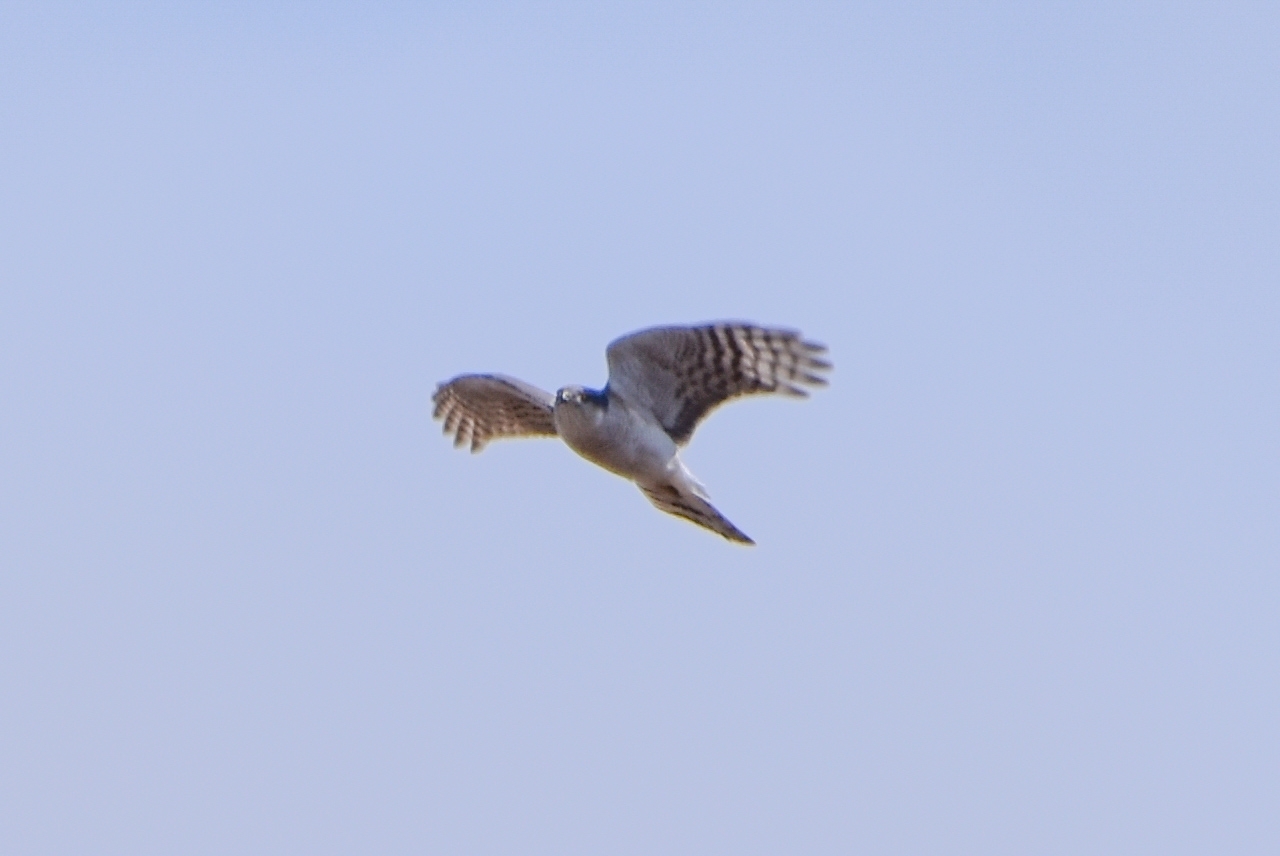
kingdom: Animalia
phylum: Chordata
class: Aves
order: Accipitriformes
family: Accipitridae
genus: Accipiter
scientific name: Accipiter nisus
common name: Eurasian sparrowhawk
